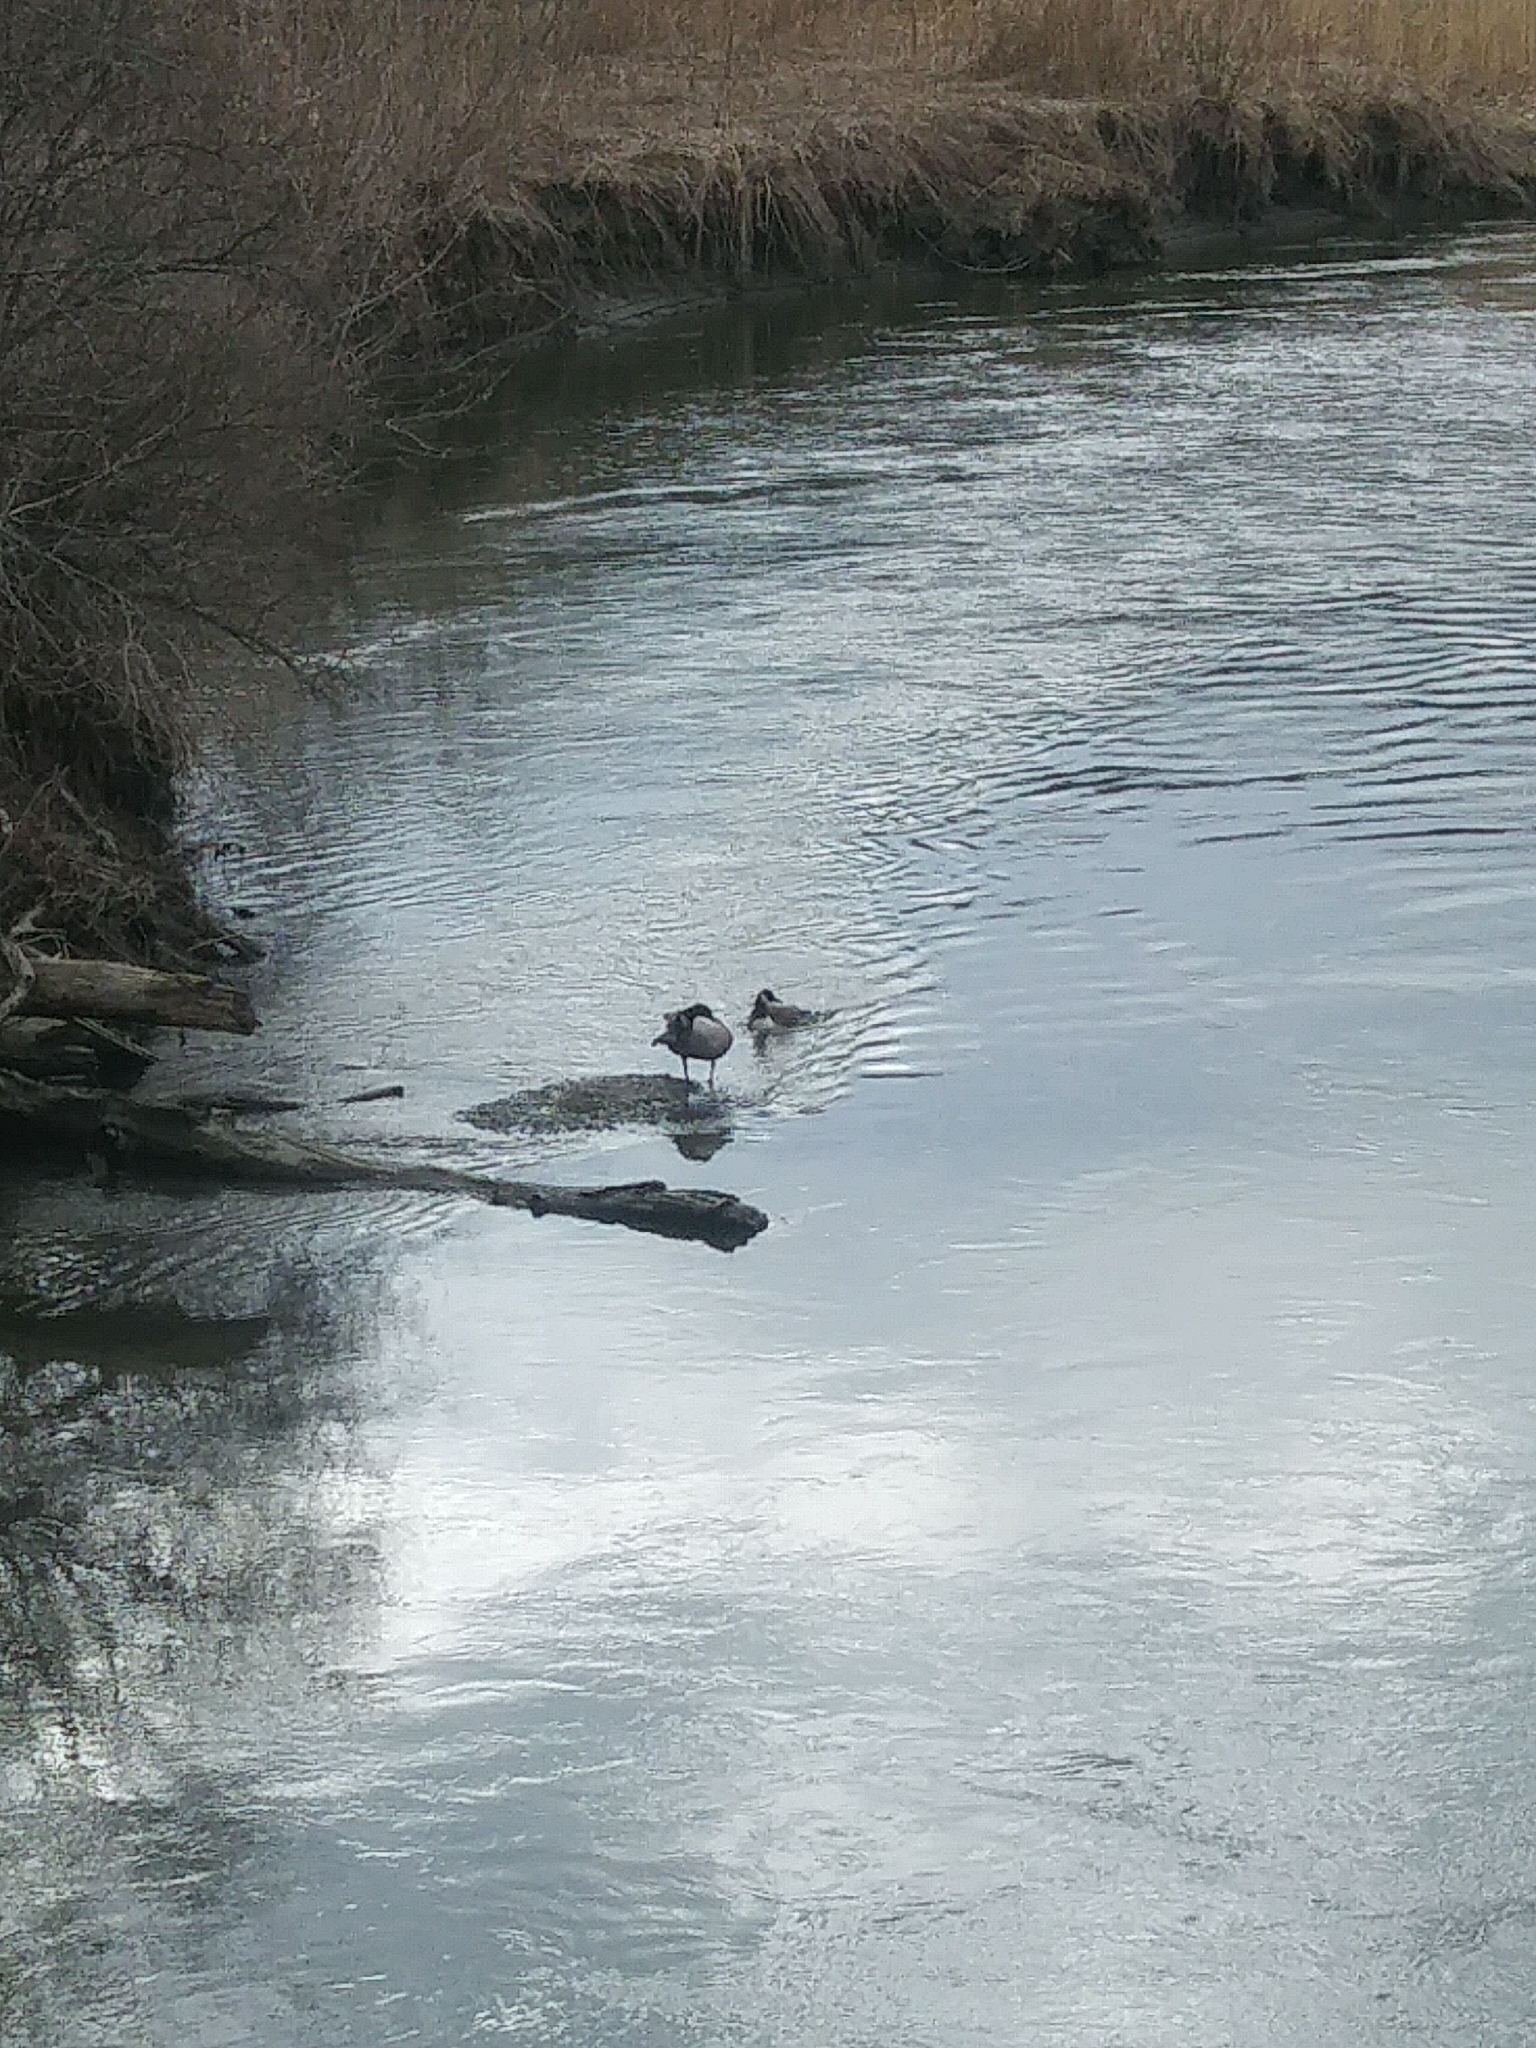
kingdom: Animalia
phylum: Chordata
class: Aves
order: Anseriformes
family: Anatidae
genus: Branta
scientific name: Branta canadensis
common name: Canada goose
